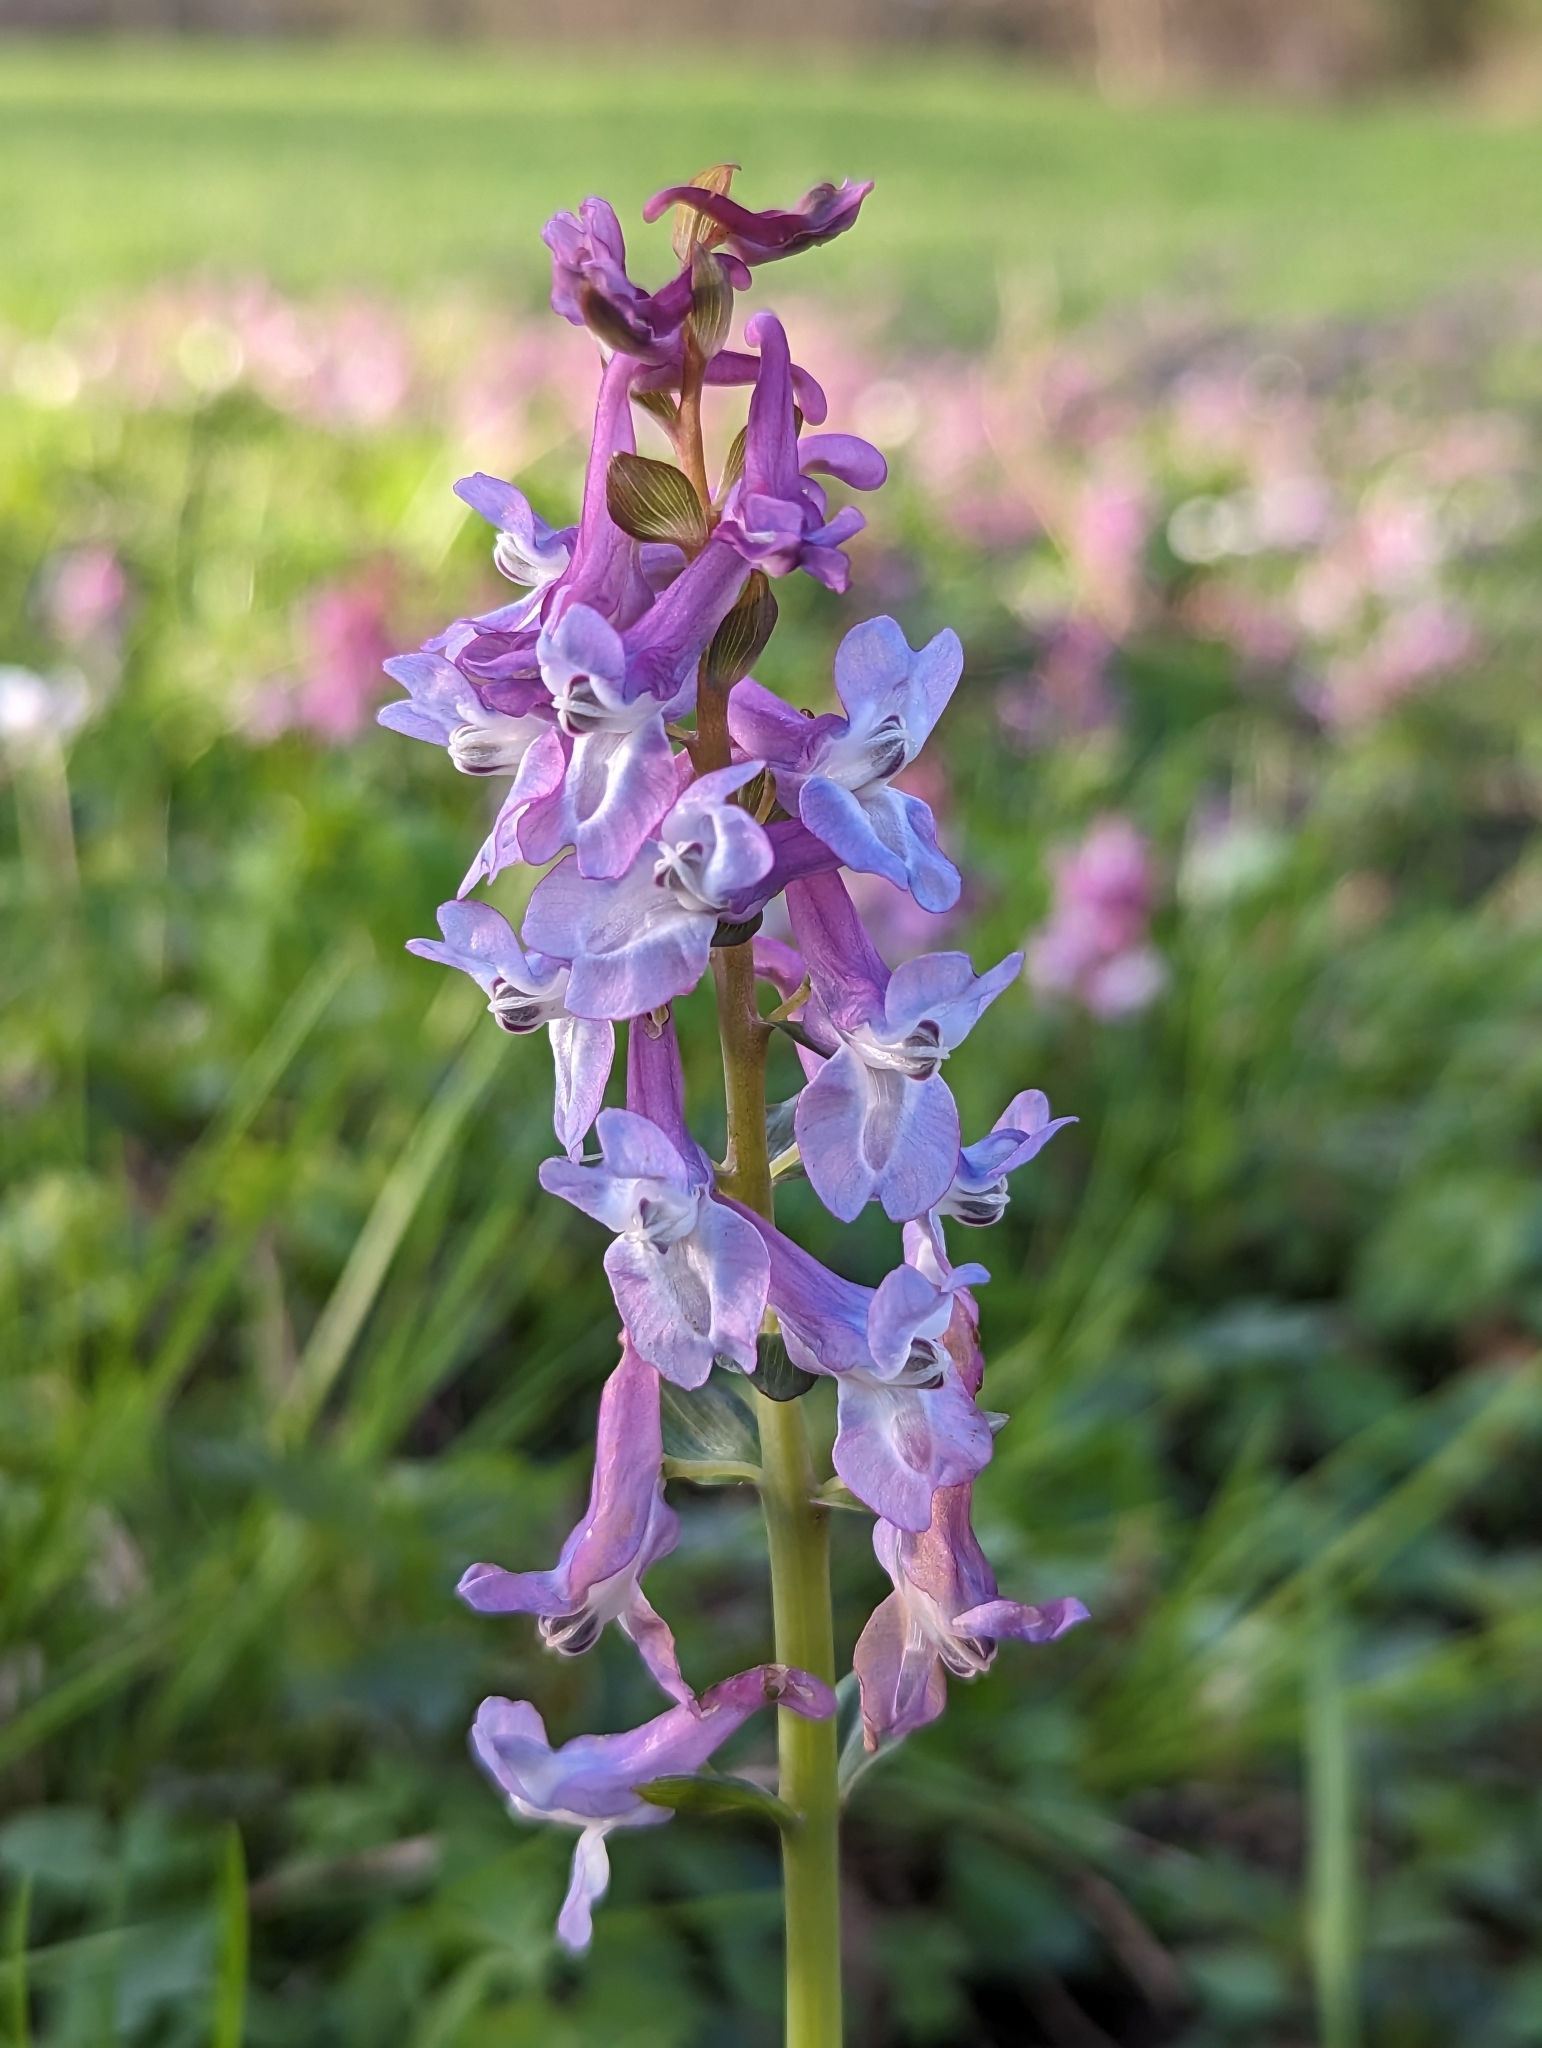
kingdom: Plantae
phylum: Tracheophyta
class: Magnoliopsida
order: Ranunculales
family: Papaveraceae
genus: Corydalis
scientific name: Corydalis cava
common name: Hollowroot
